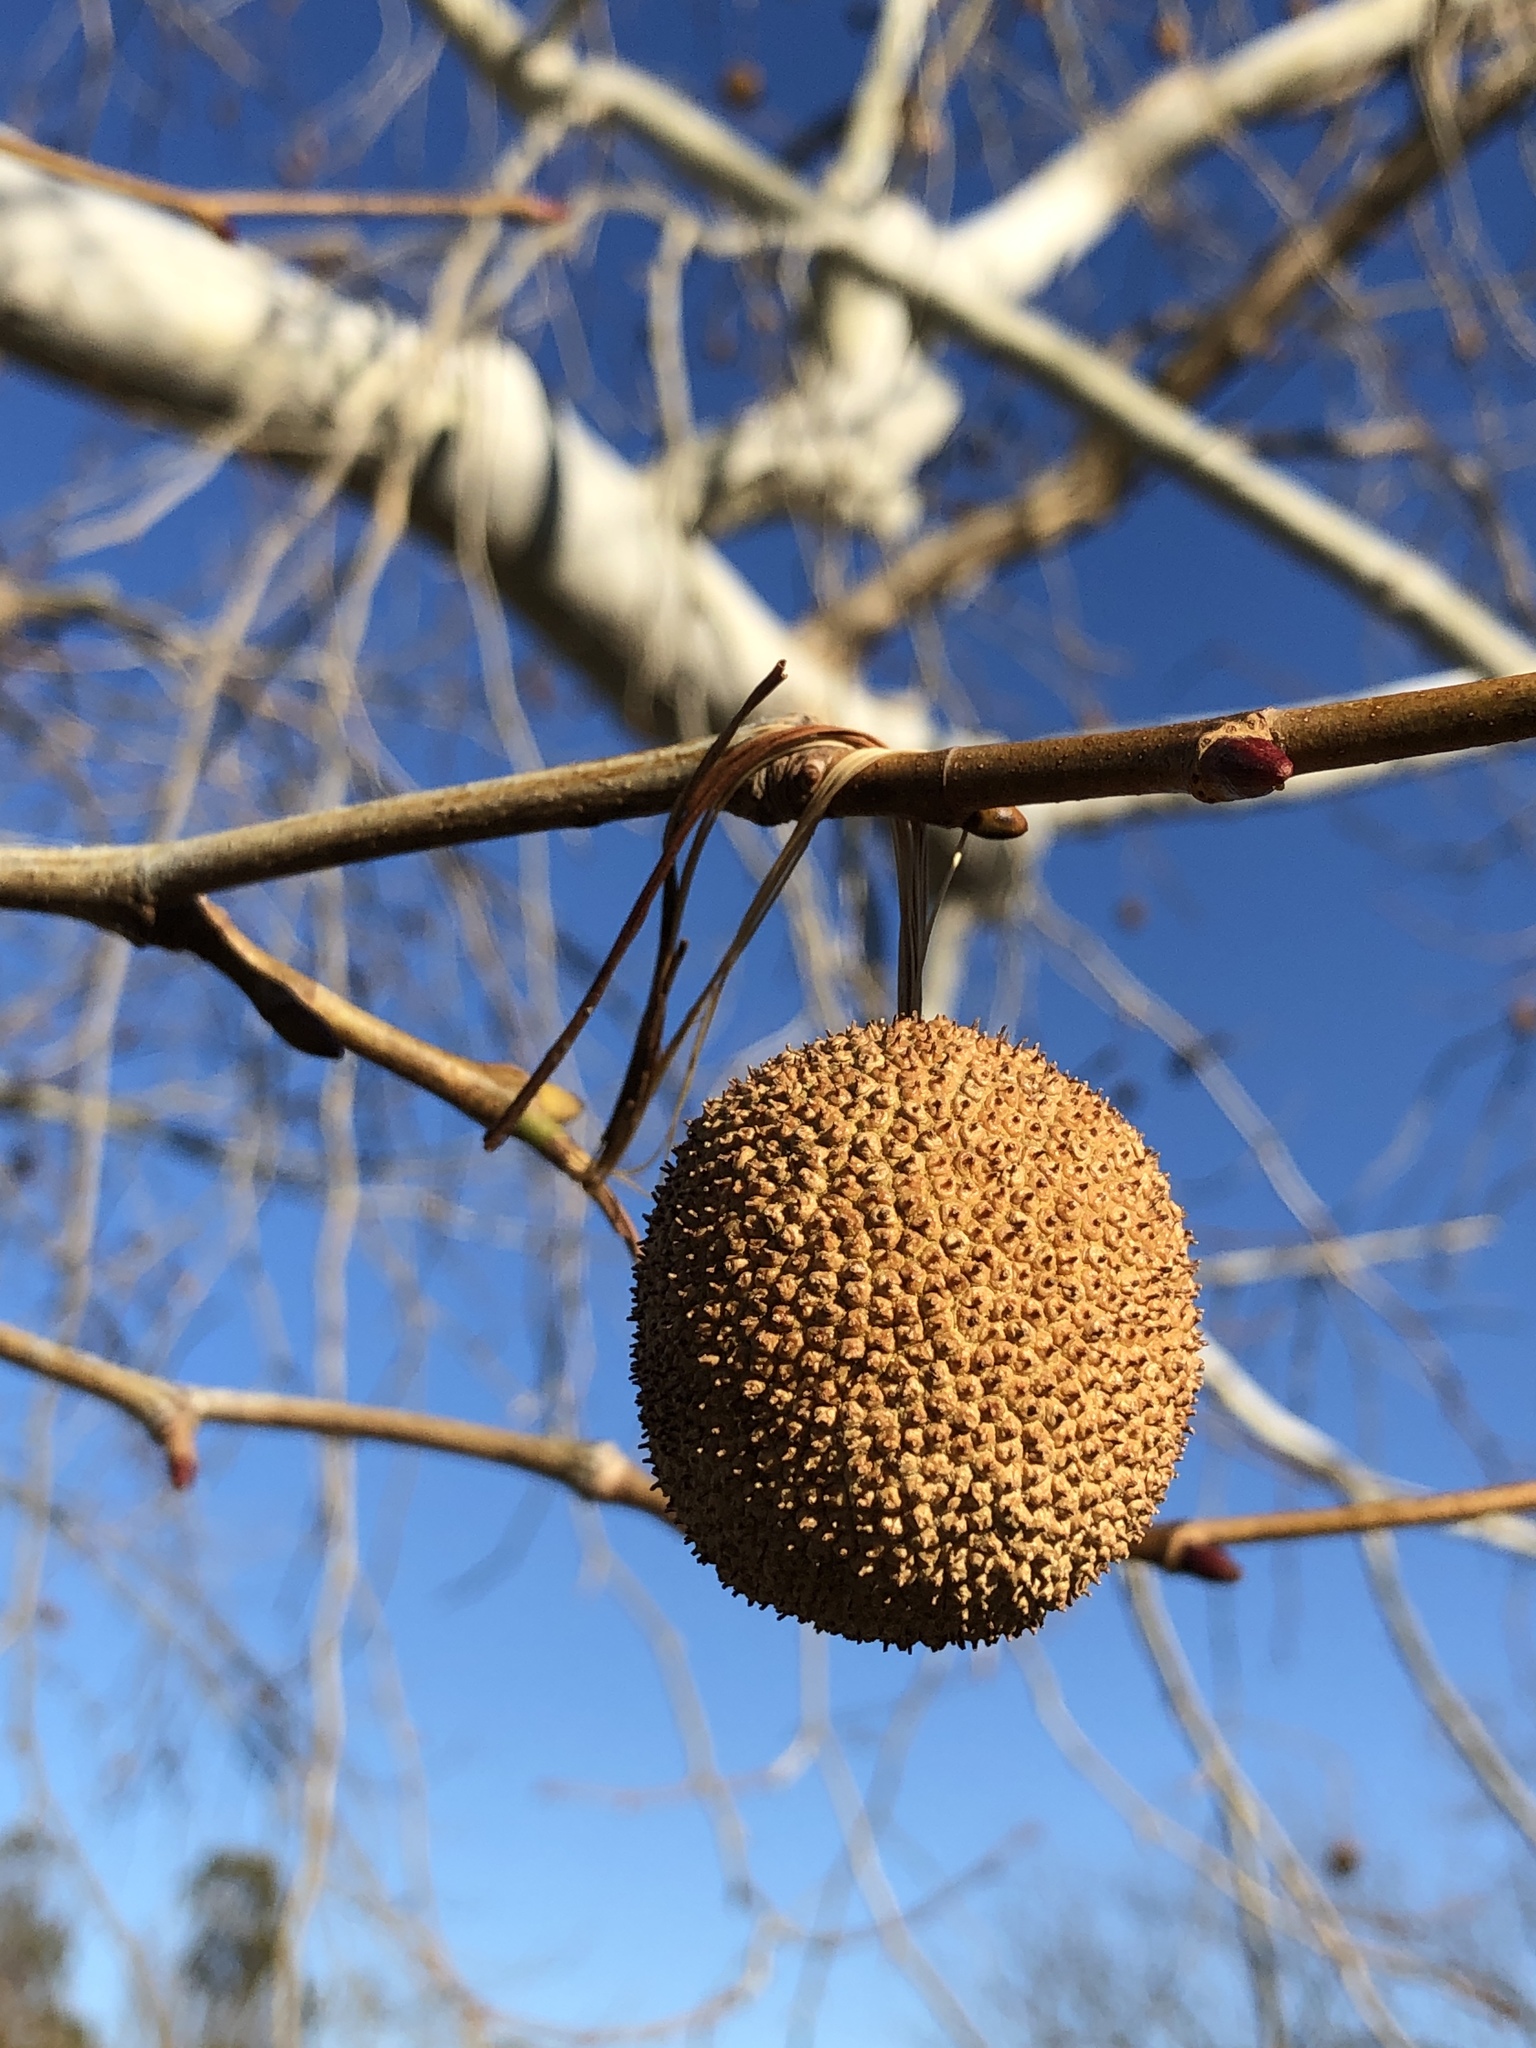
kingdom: Plantae
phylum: Tracheophyta
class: Magnoliopsida
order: Proteales
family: Platanaceae
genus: Platanus
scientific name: Platanus occidentalis
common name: American sycamore
